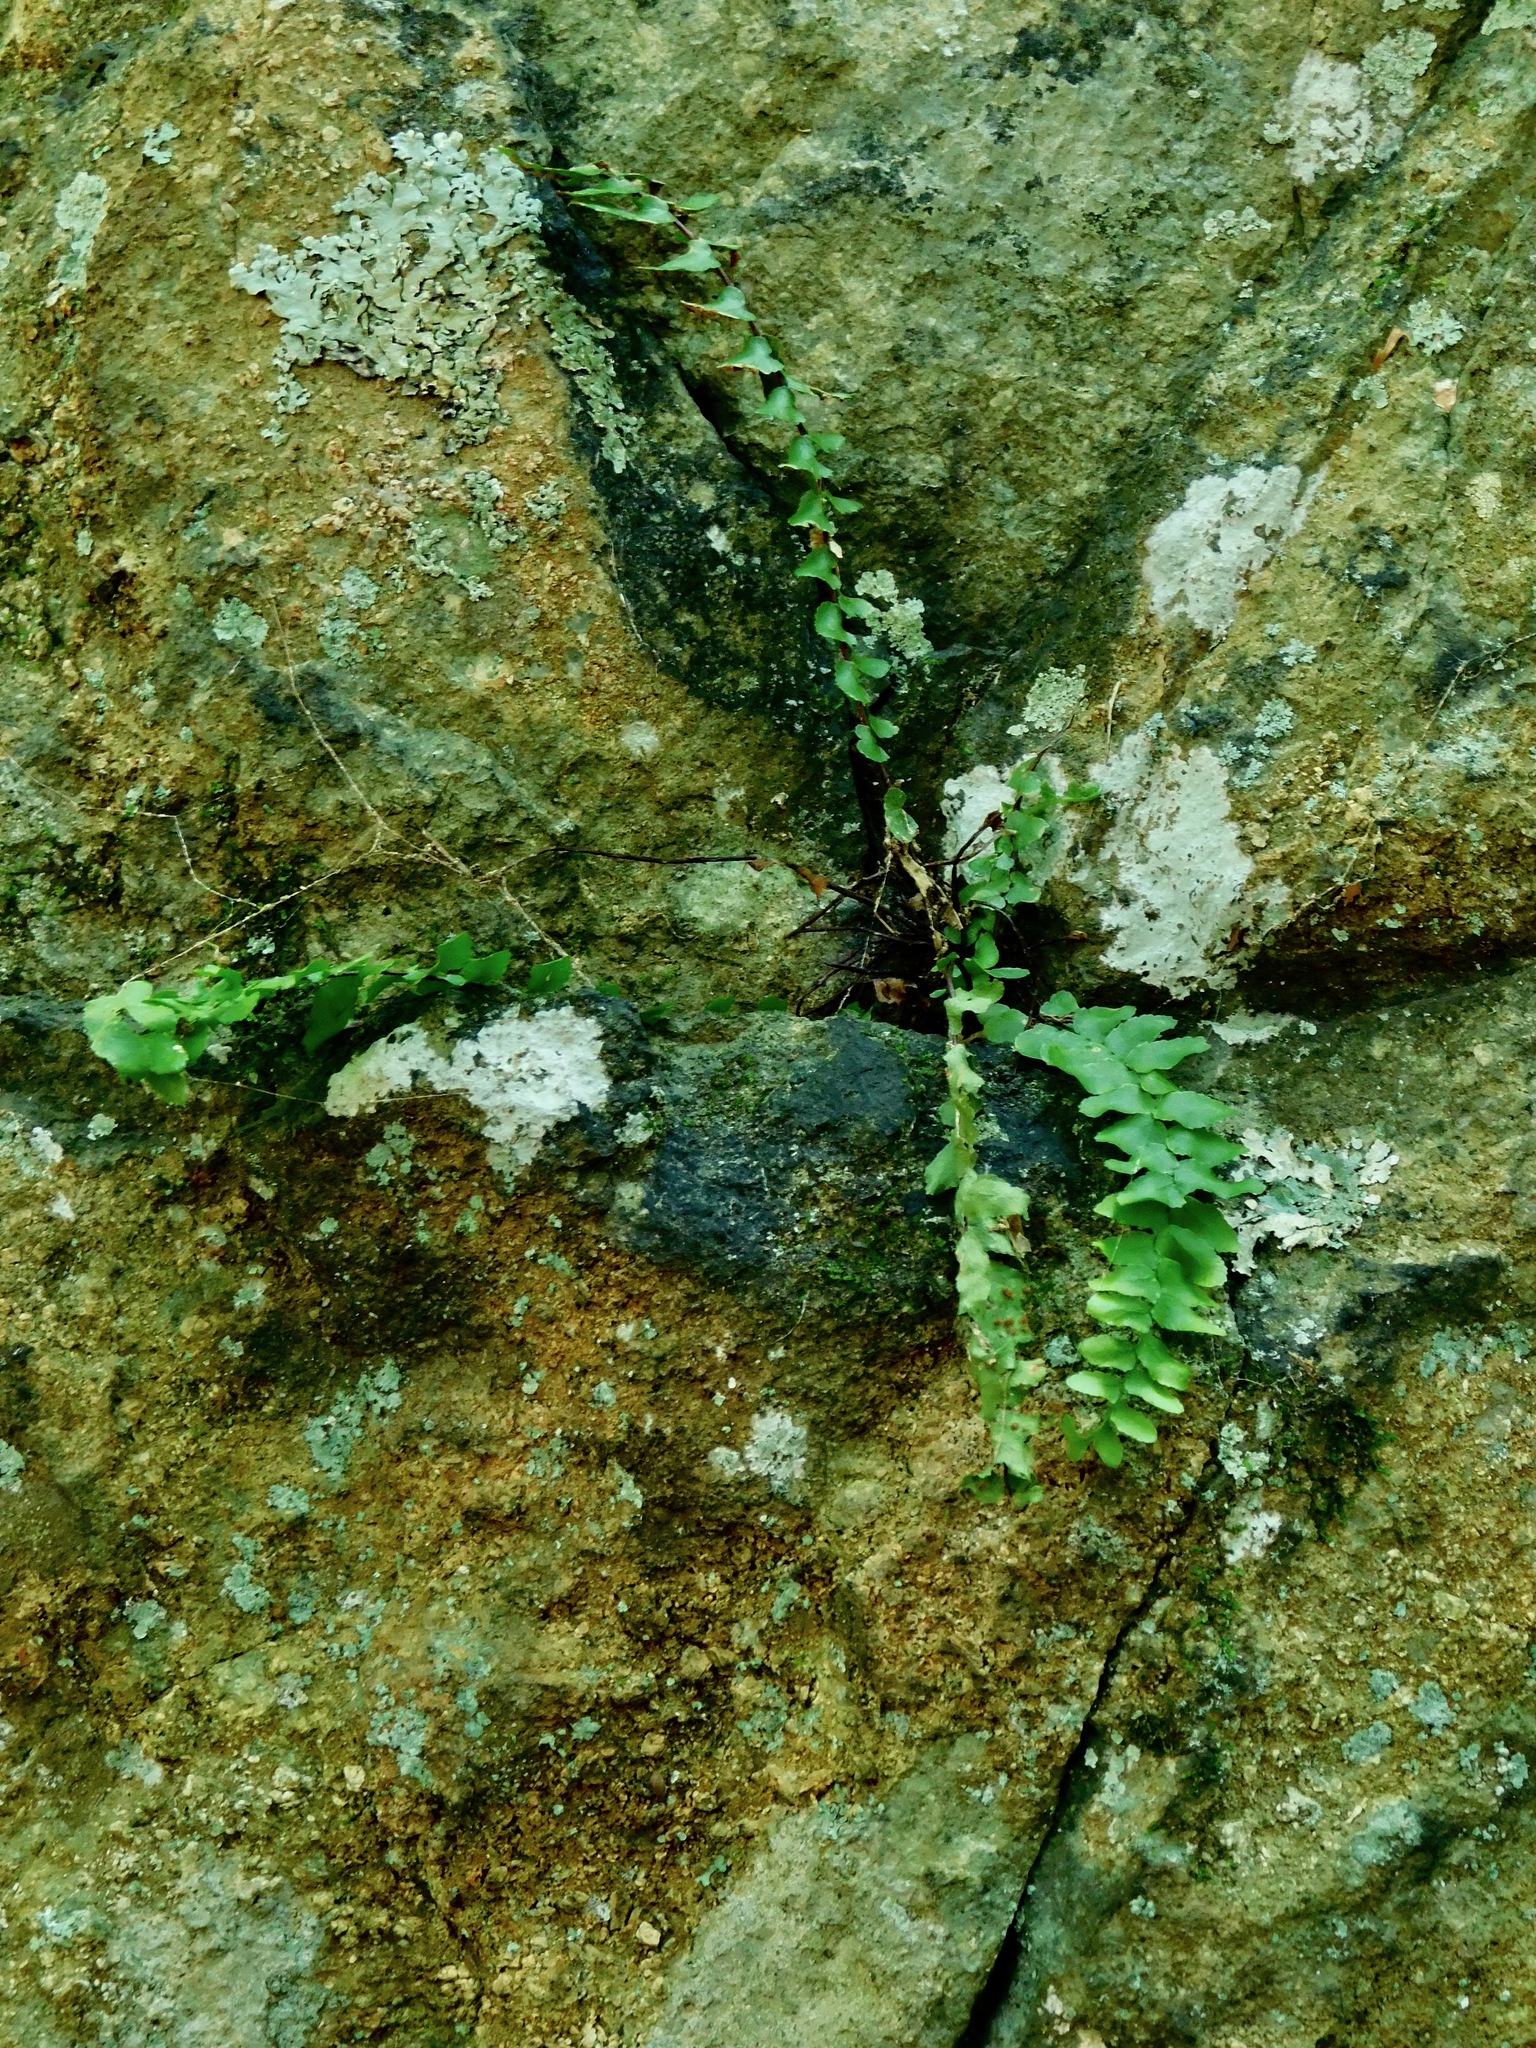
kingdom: Plantae
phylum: Tracheophyta
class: Polypodiopsida
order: Polypodiales
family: Aspleniaceae
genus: Asplenium
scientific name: Asplenium platyneuron
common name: Ebony spleenwort
